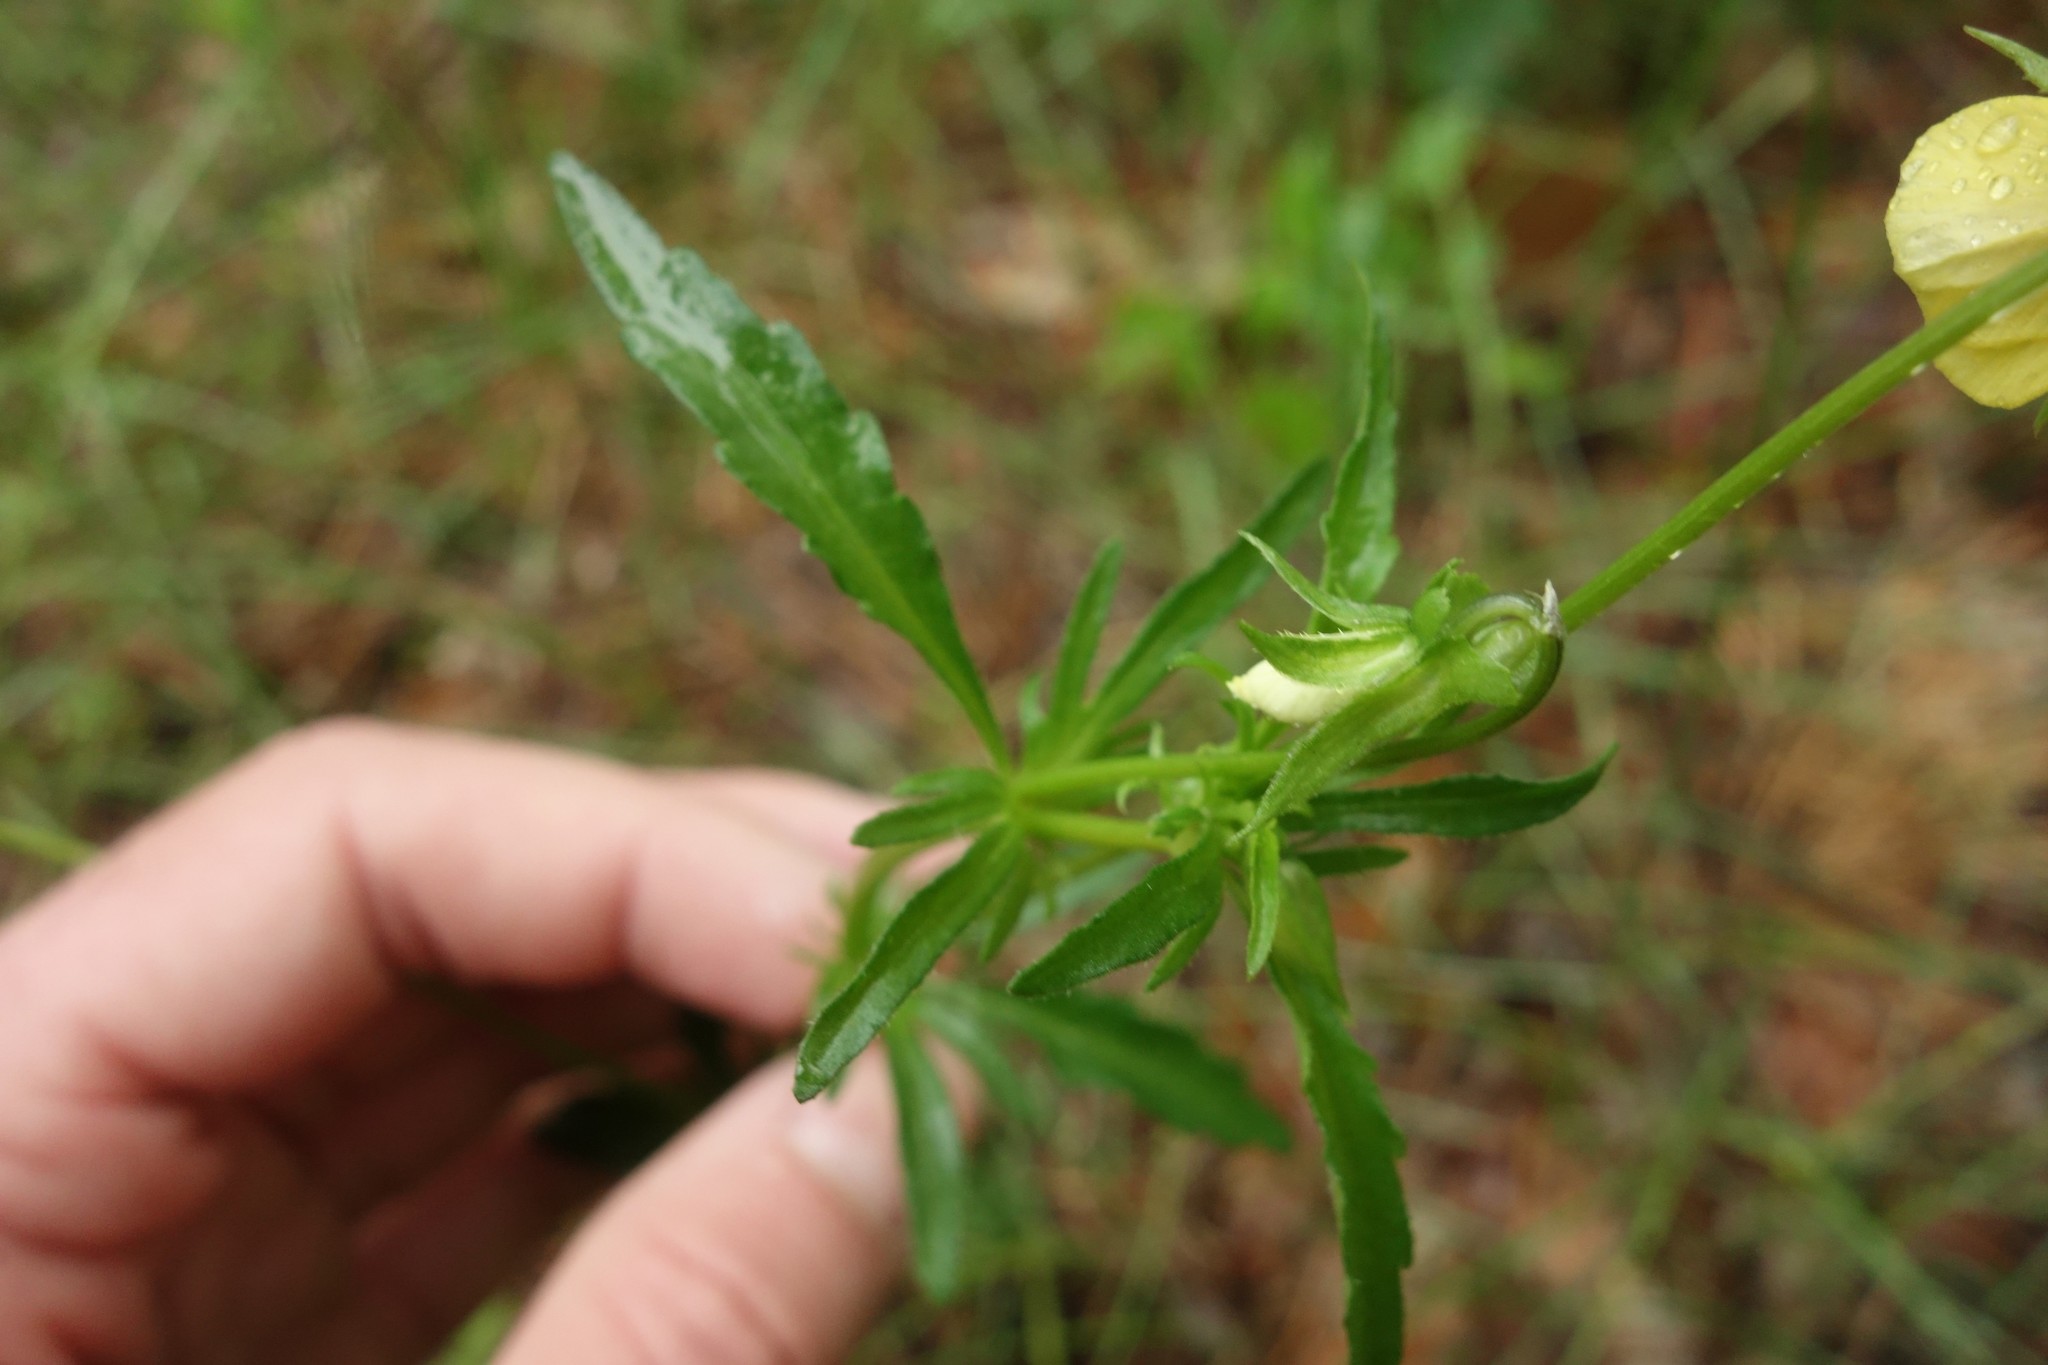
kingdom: Plantae
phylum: Tracheophyta
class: Magnoliopsida
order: Malpighiales
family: Violaceae
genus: Viola
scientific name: Viola tricolor
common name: Pansy
